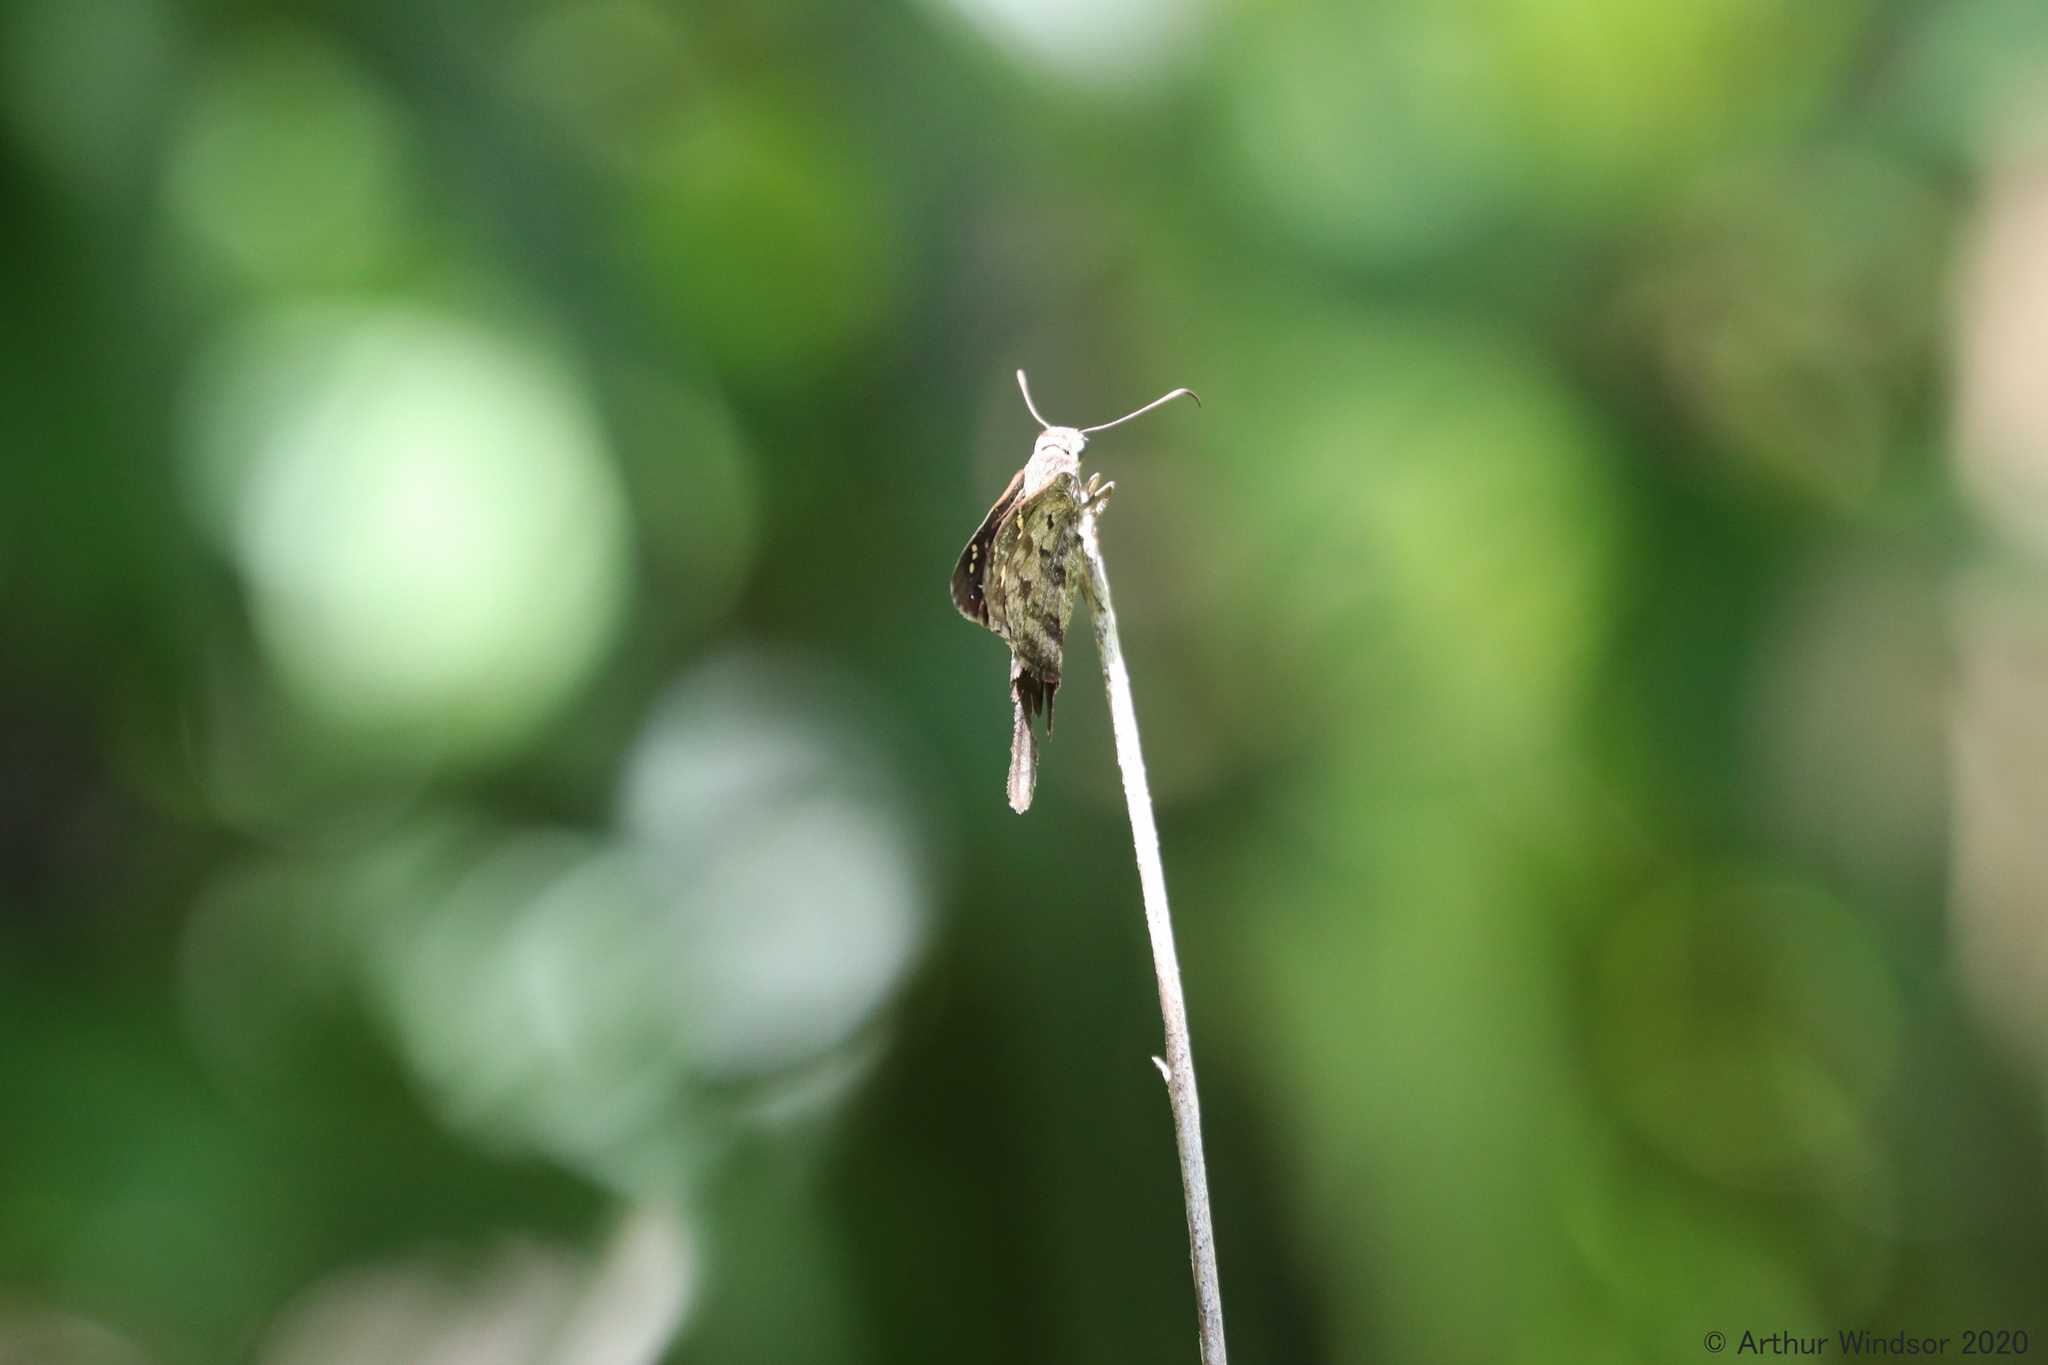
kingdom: Animalia
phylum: Arthropoda
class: Insecta
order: Lepidoptera
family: Hesperiidae
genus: Thorybes
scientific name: Thorybes
